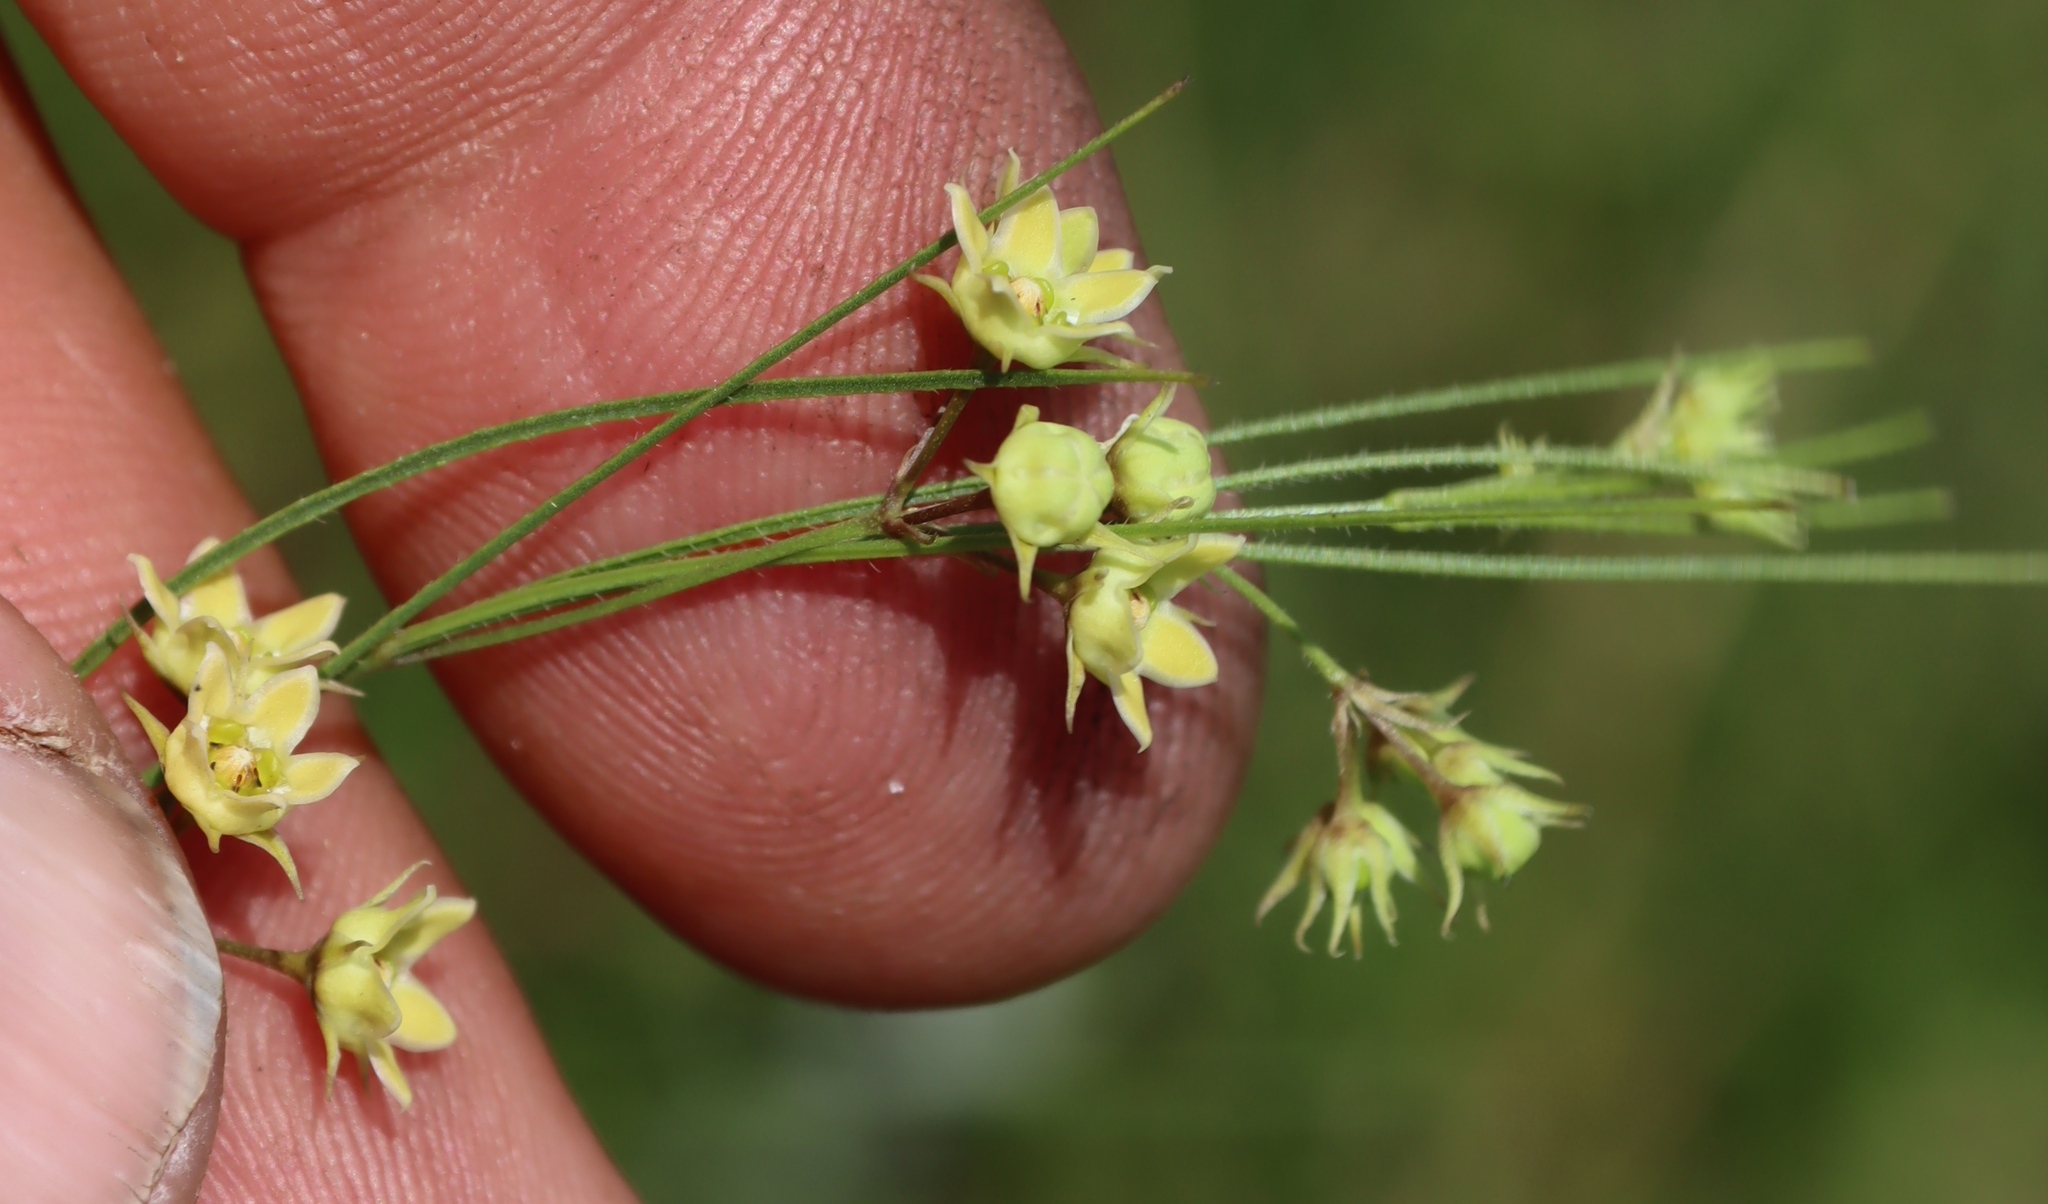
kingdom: Plantae
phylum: Tracheophyta
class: Magnoliopsida
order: Gentianales
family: Apocynaceae
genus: Sisyranthus
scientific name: Sisyranthus imberbis
